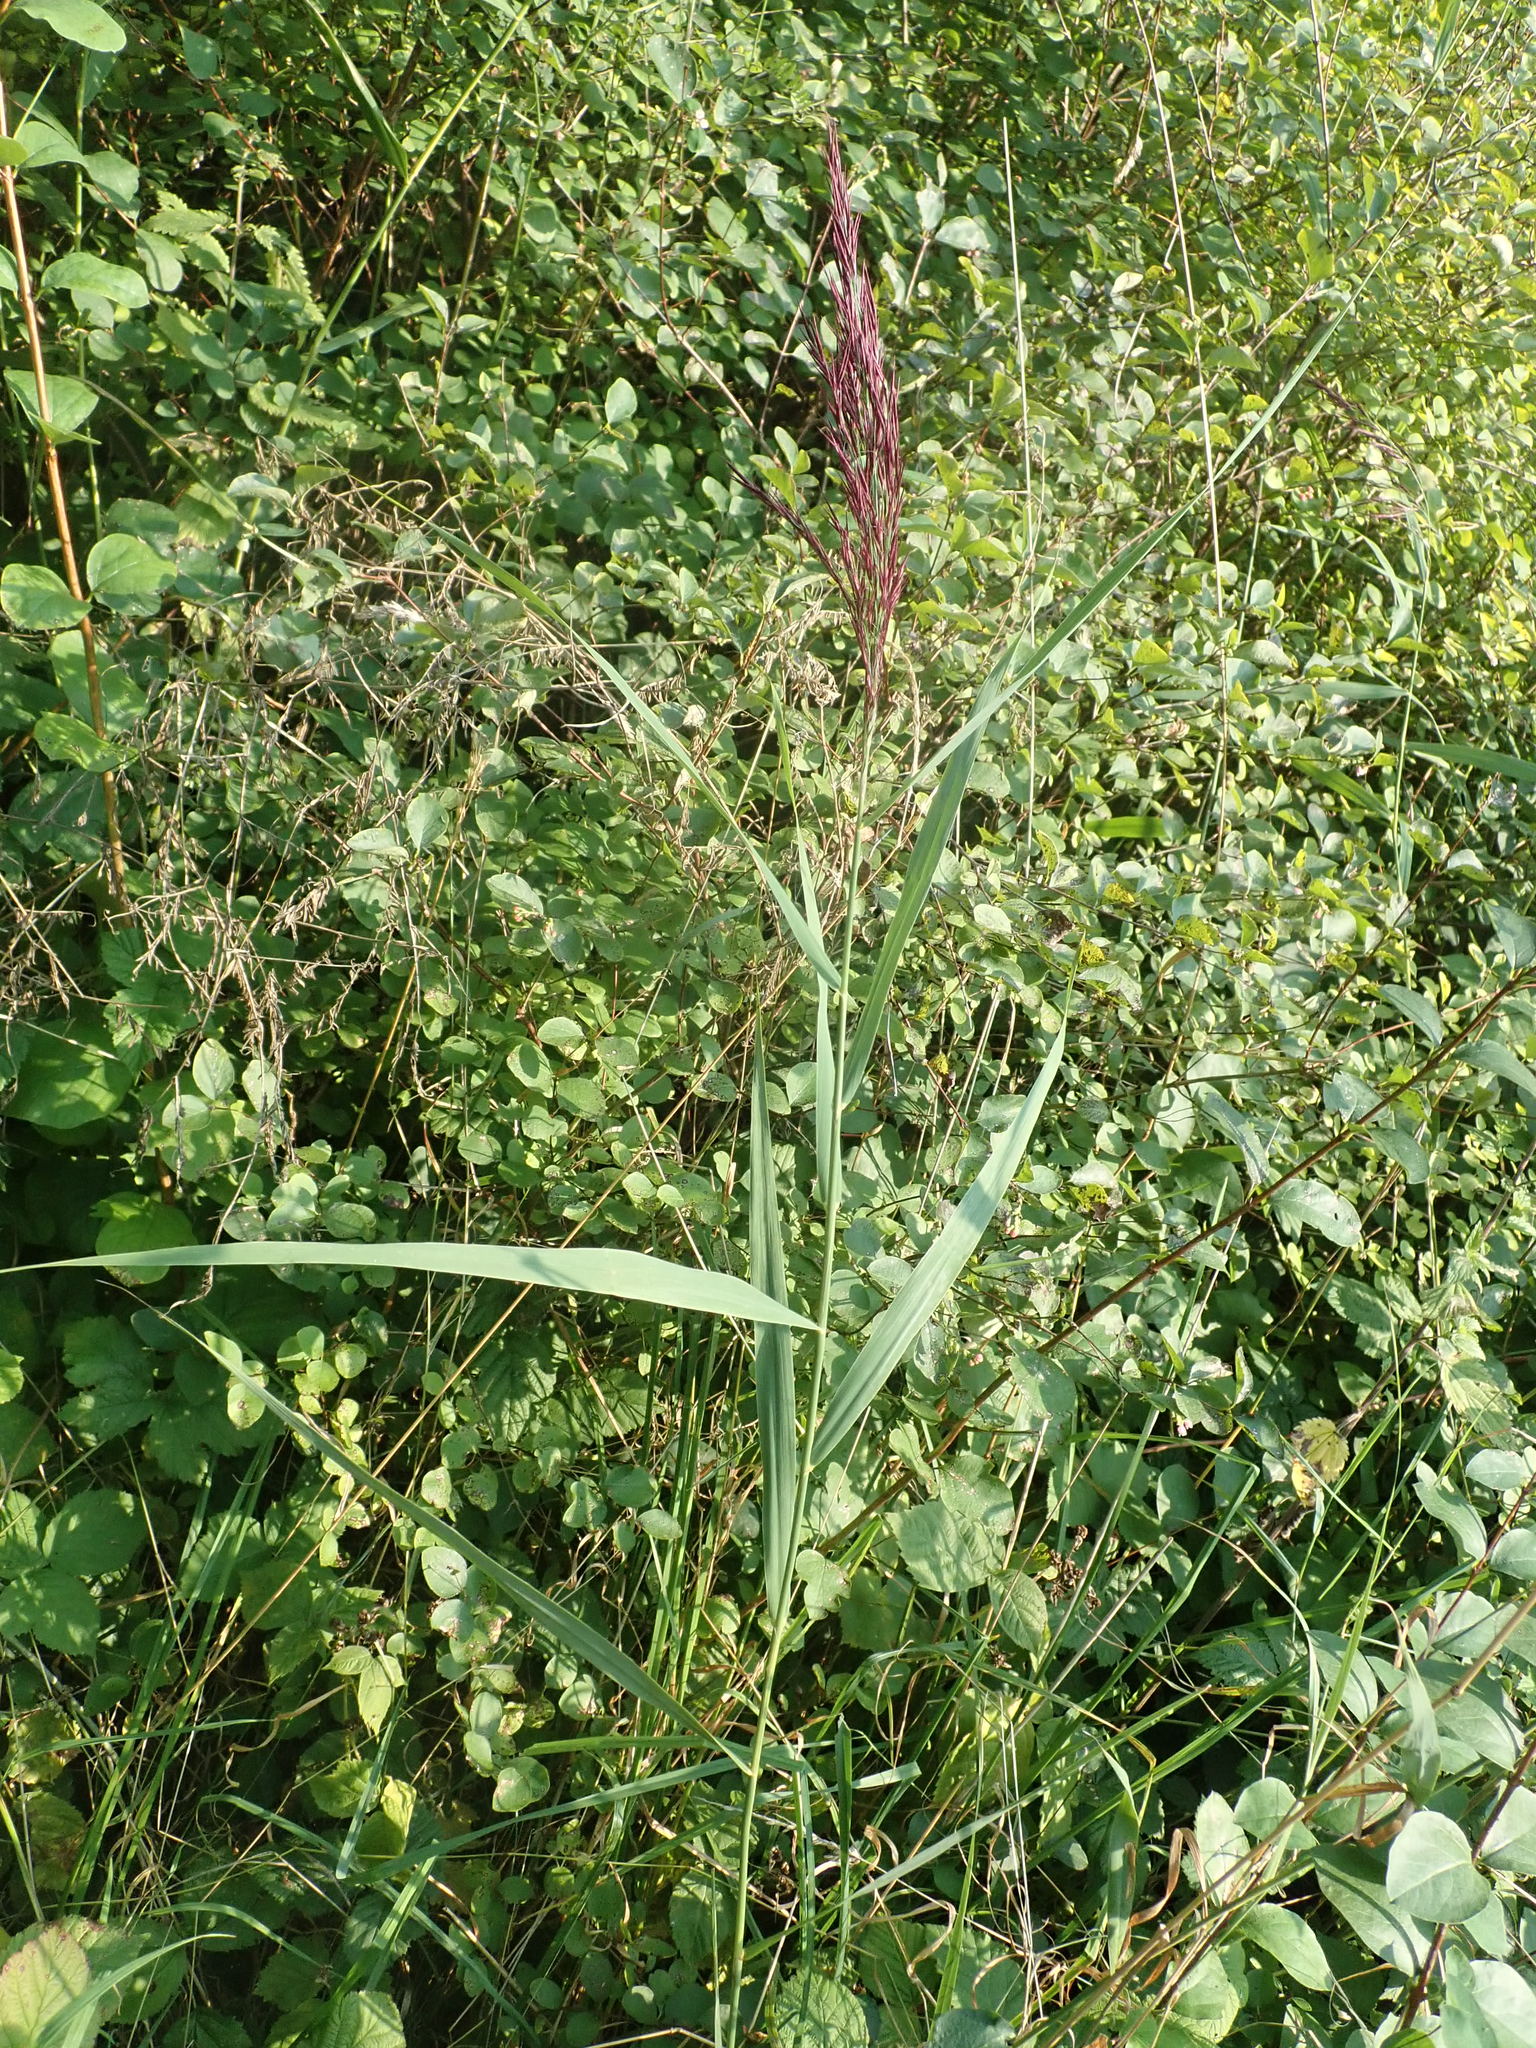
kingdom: Plantae
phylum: Tracheophyta
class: Liliopsida
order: Poales
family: Poaceae
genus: Phragmites
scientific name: Phragmites australis
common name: Common reed
